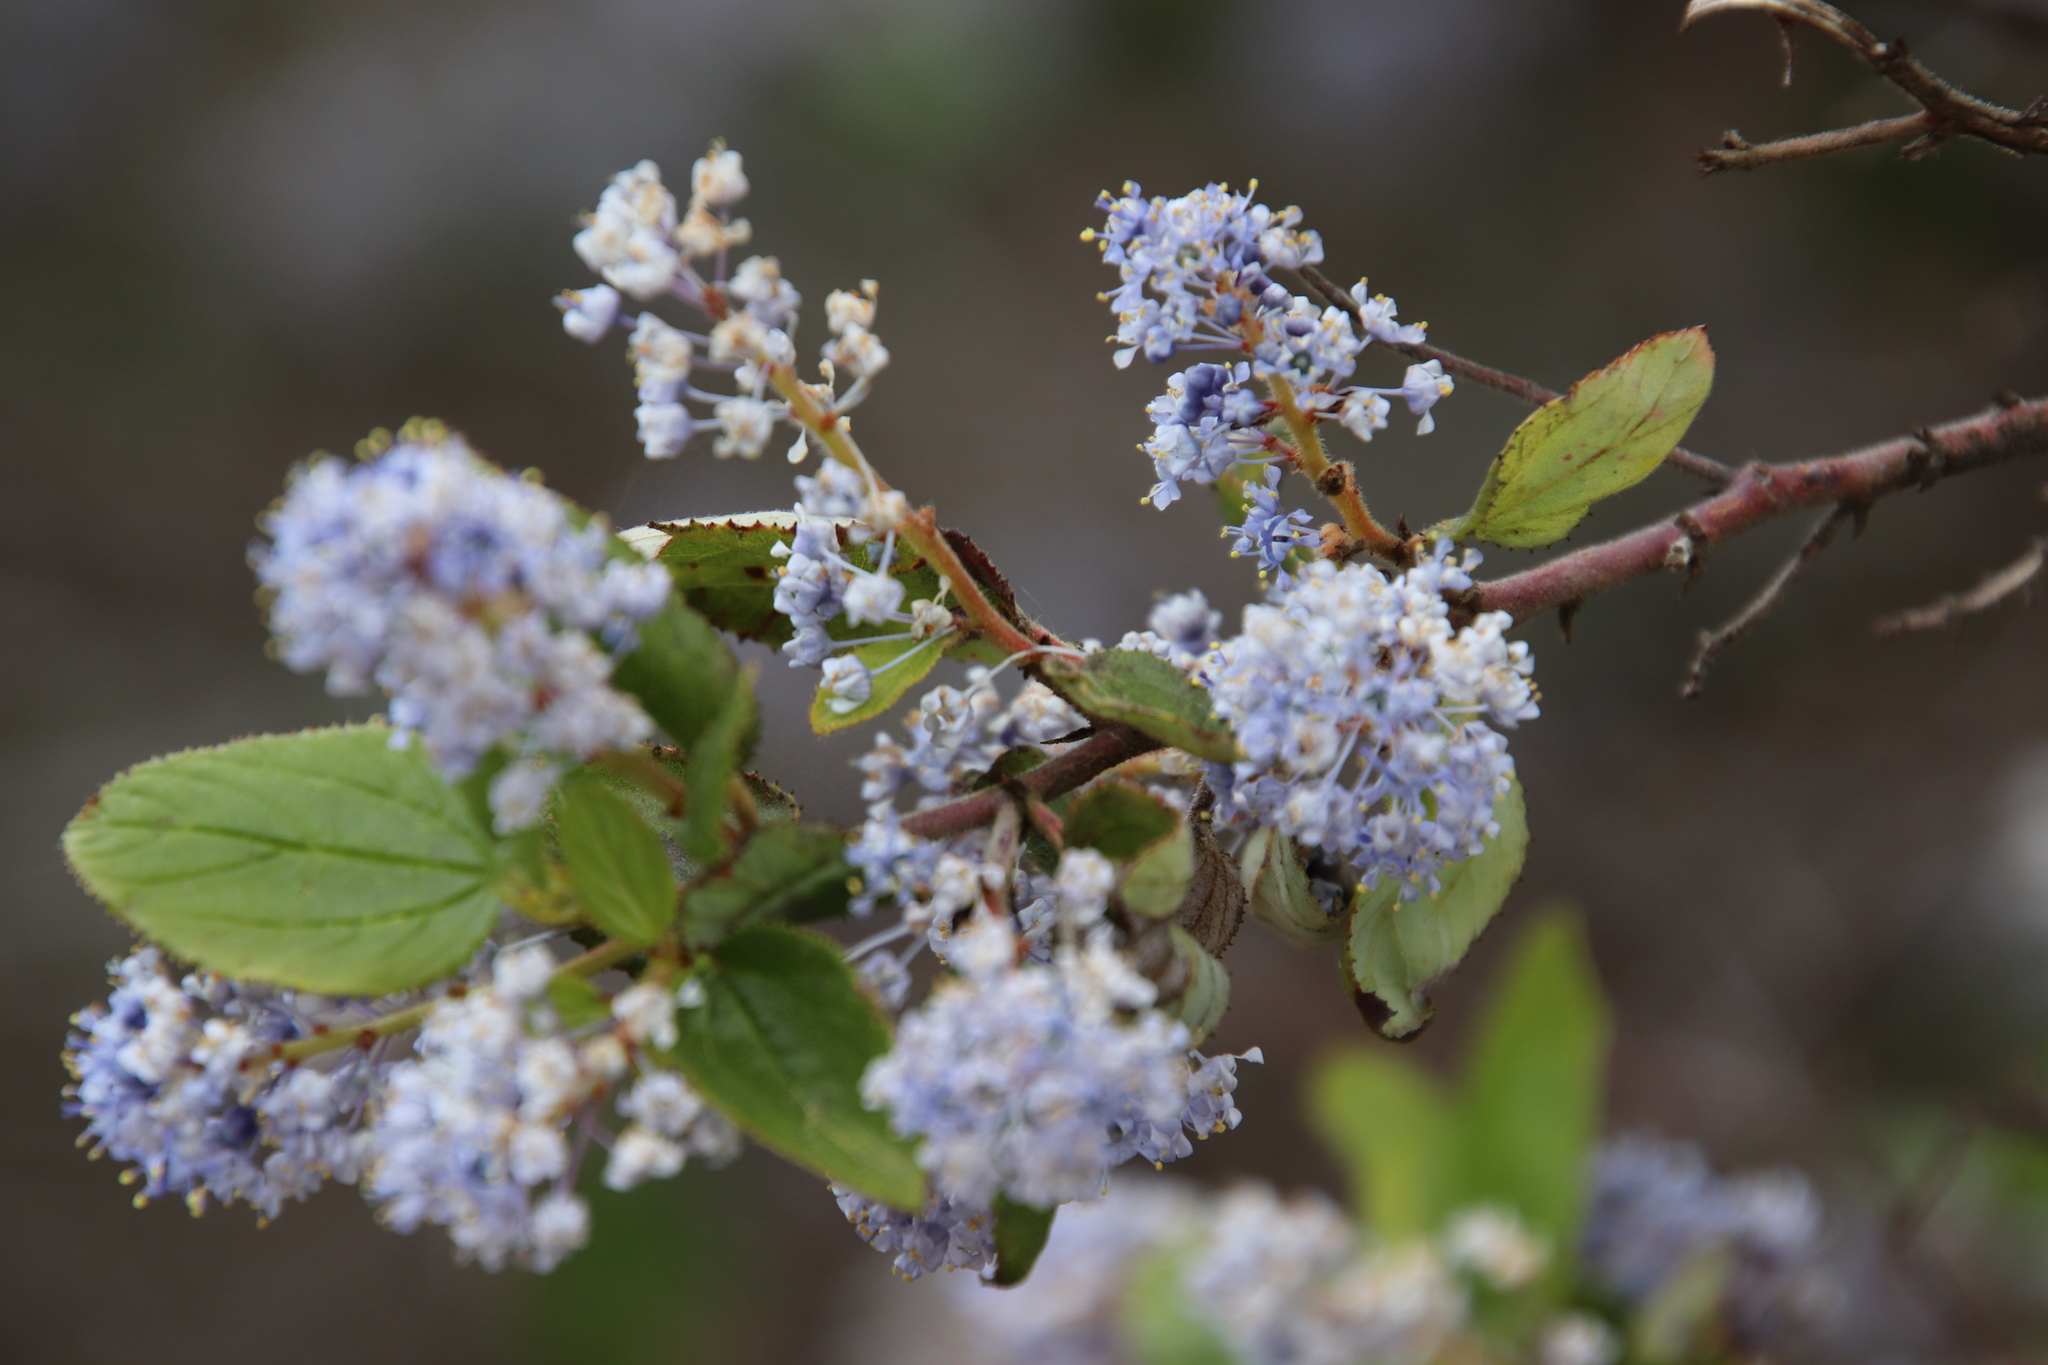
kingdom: Plantae
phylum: Tracheophyta
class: Magnoliopsida
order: Rosales
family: Rhamnaceae
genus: Ceanothus
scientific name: Ceanothus oliganthus
